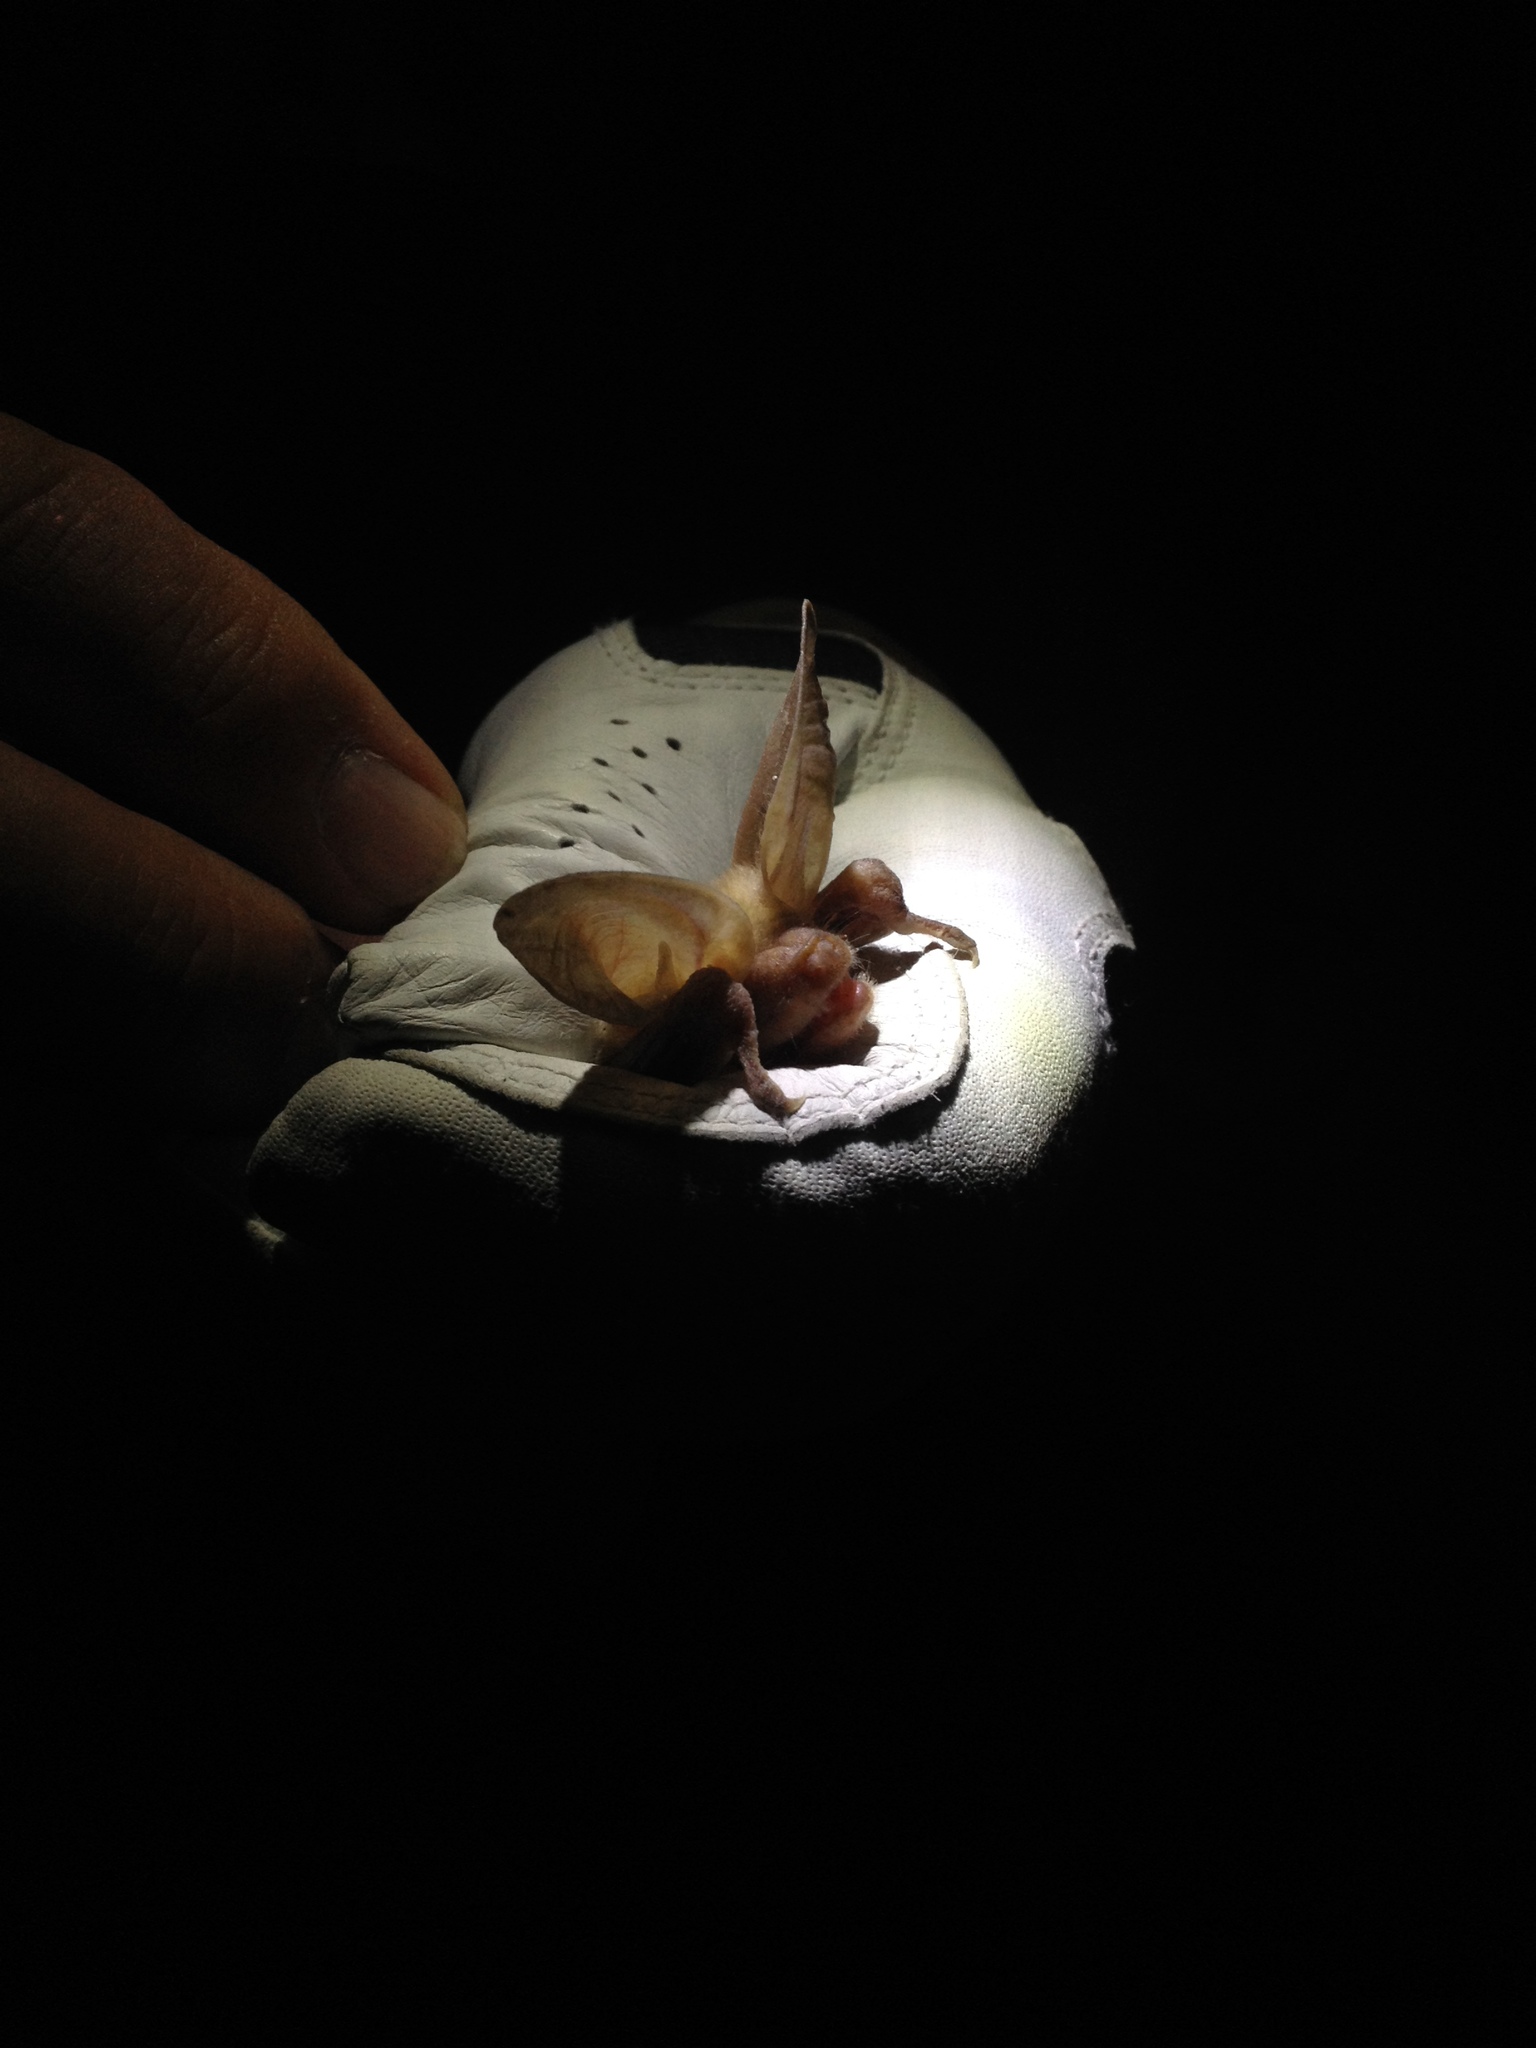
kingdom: Animalia
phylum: Chordata
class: Mammalia
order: Chiroptera
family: Vespertilionidae
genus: Antrozous
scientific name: Antrozous pallidus
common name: Pallid bat
